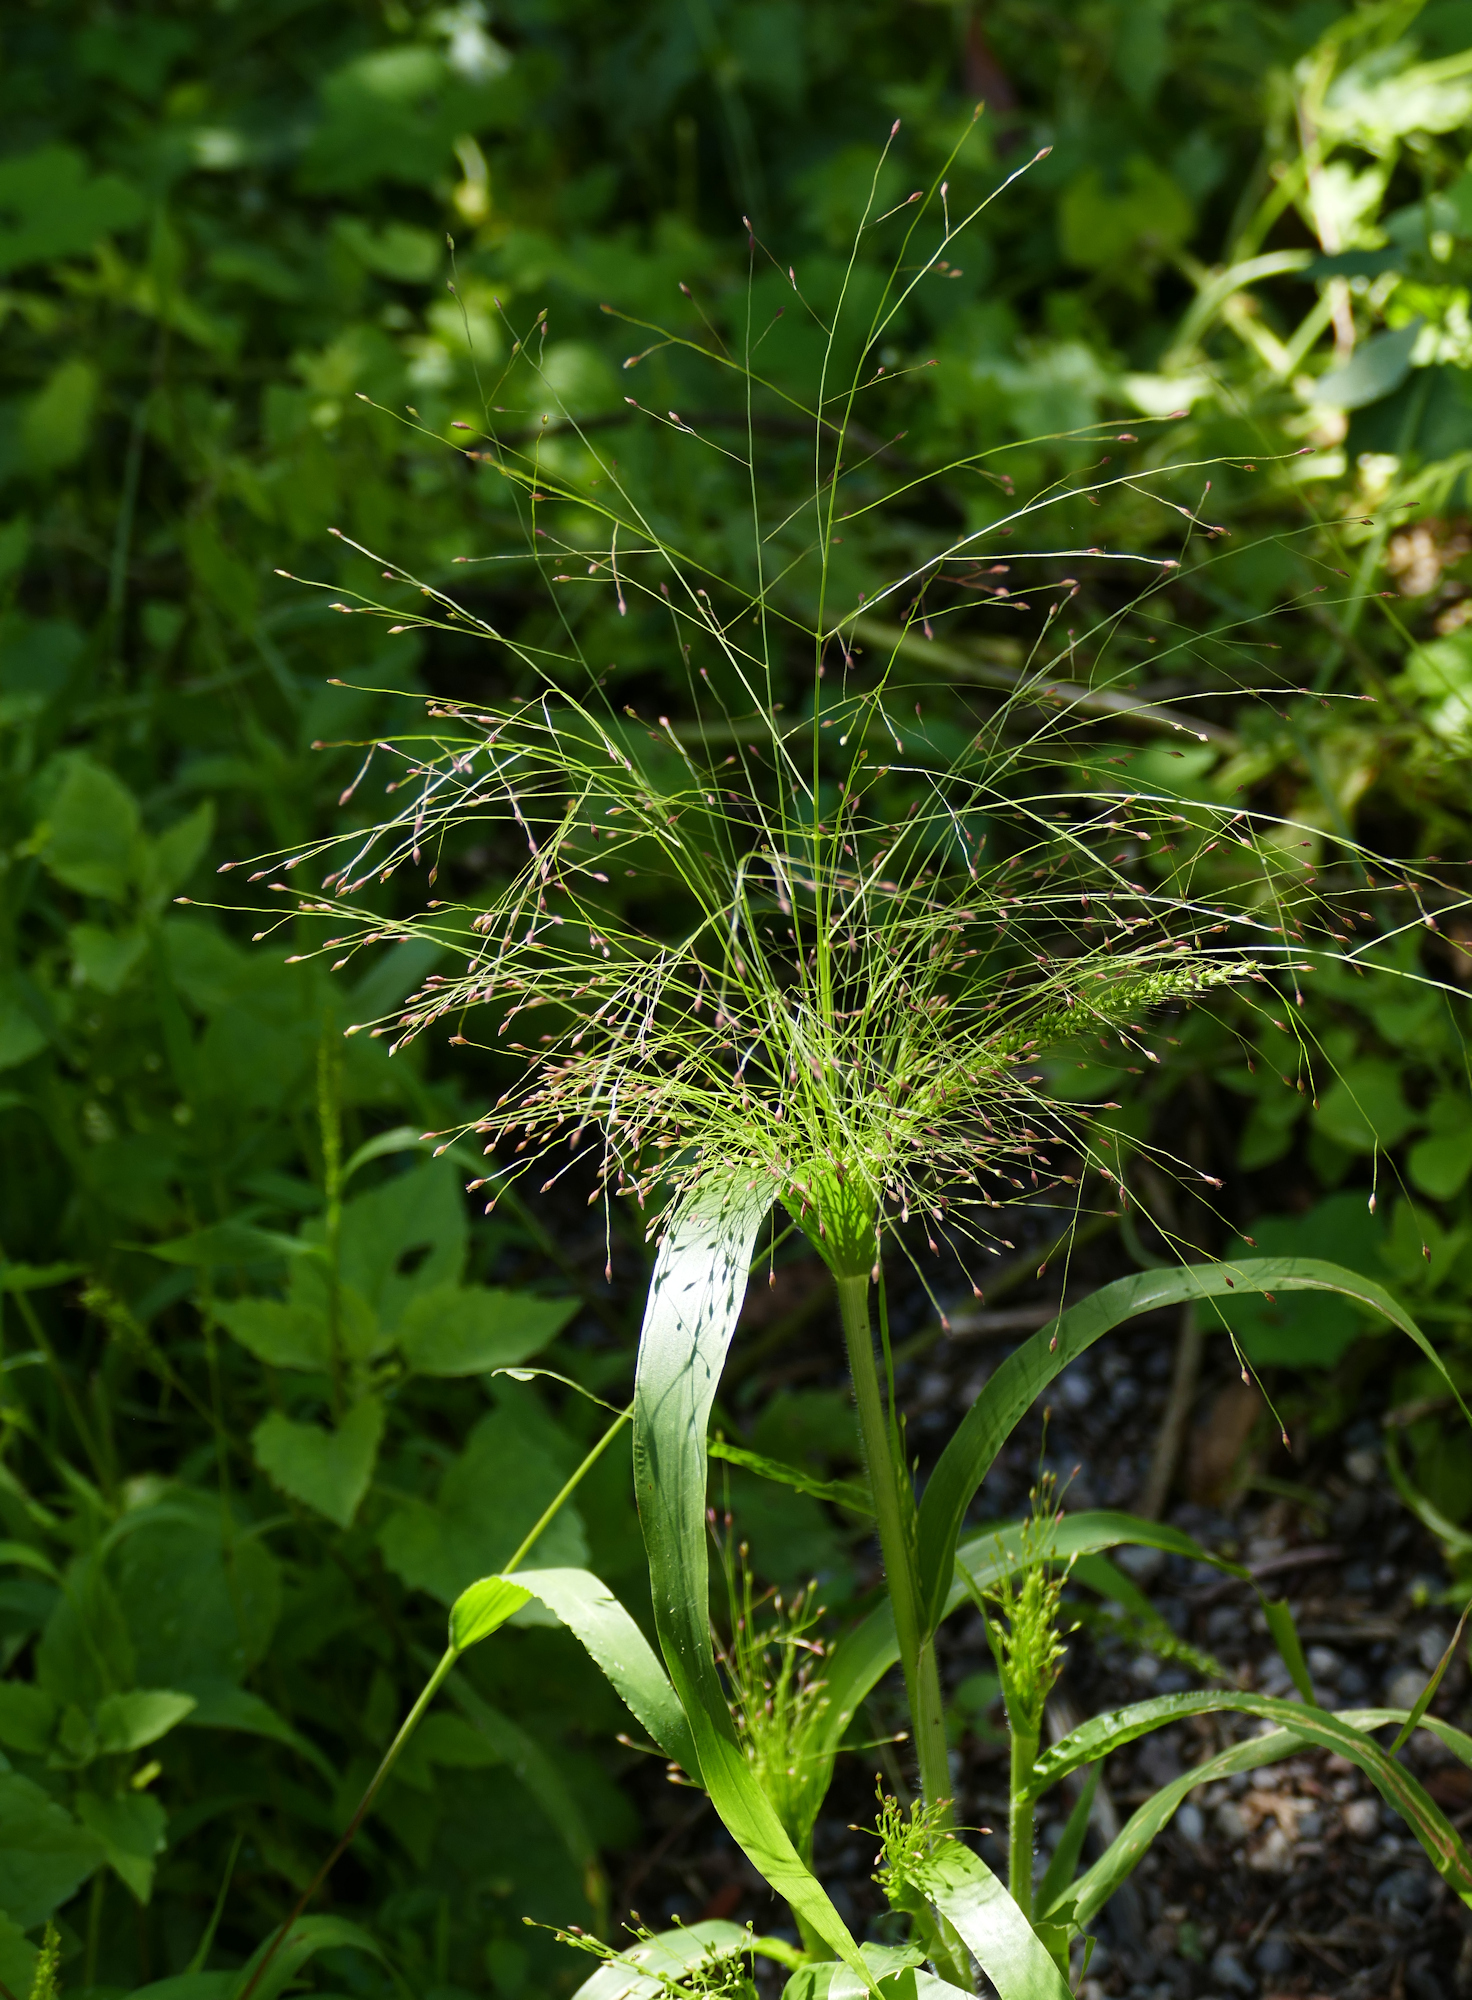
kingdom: Plantae
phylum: Tracheophyta
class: Liliopsida
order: Poales
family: Poaceae
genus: Panicum
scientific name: Panicum capillare
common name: Witch-grass
